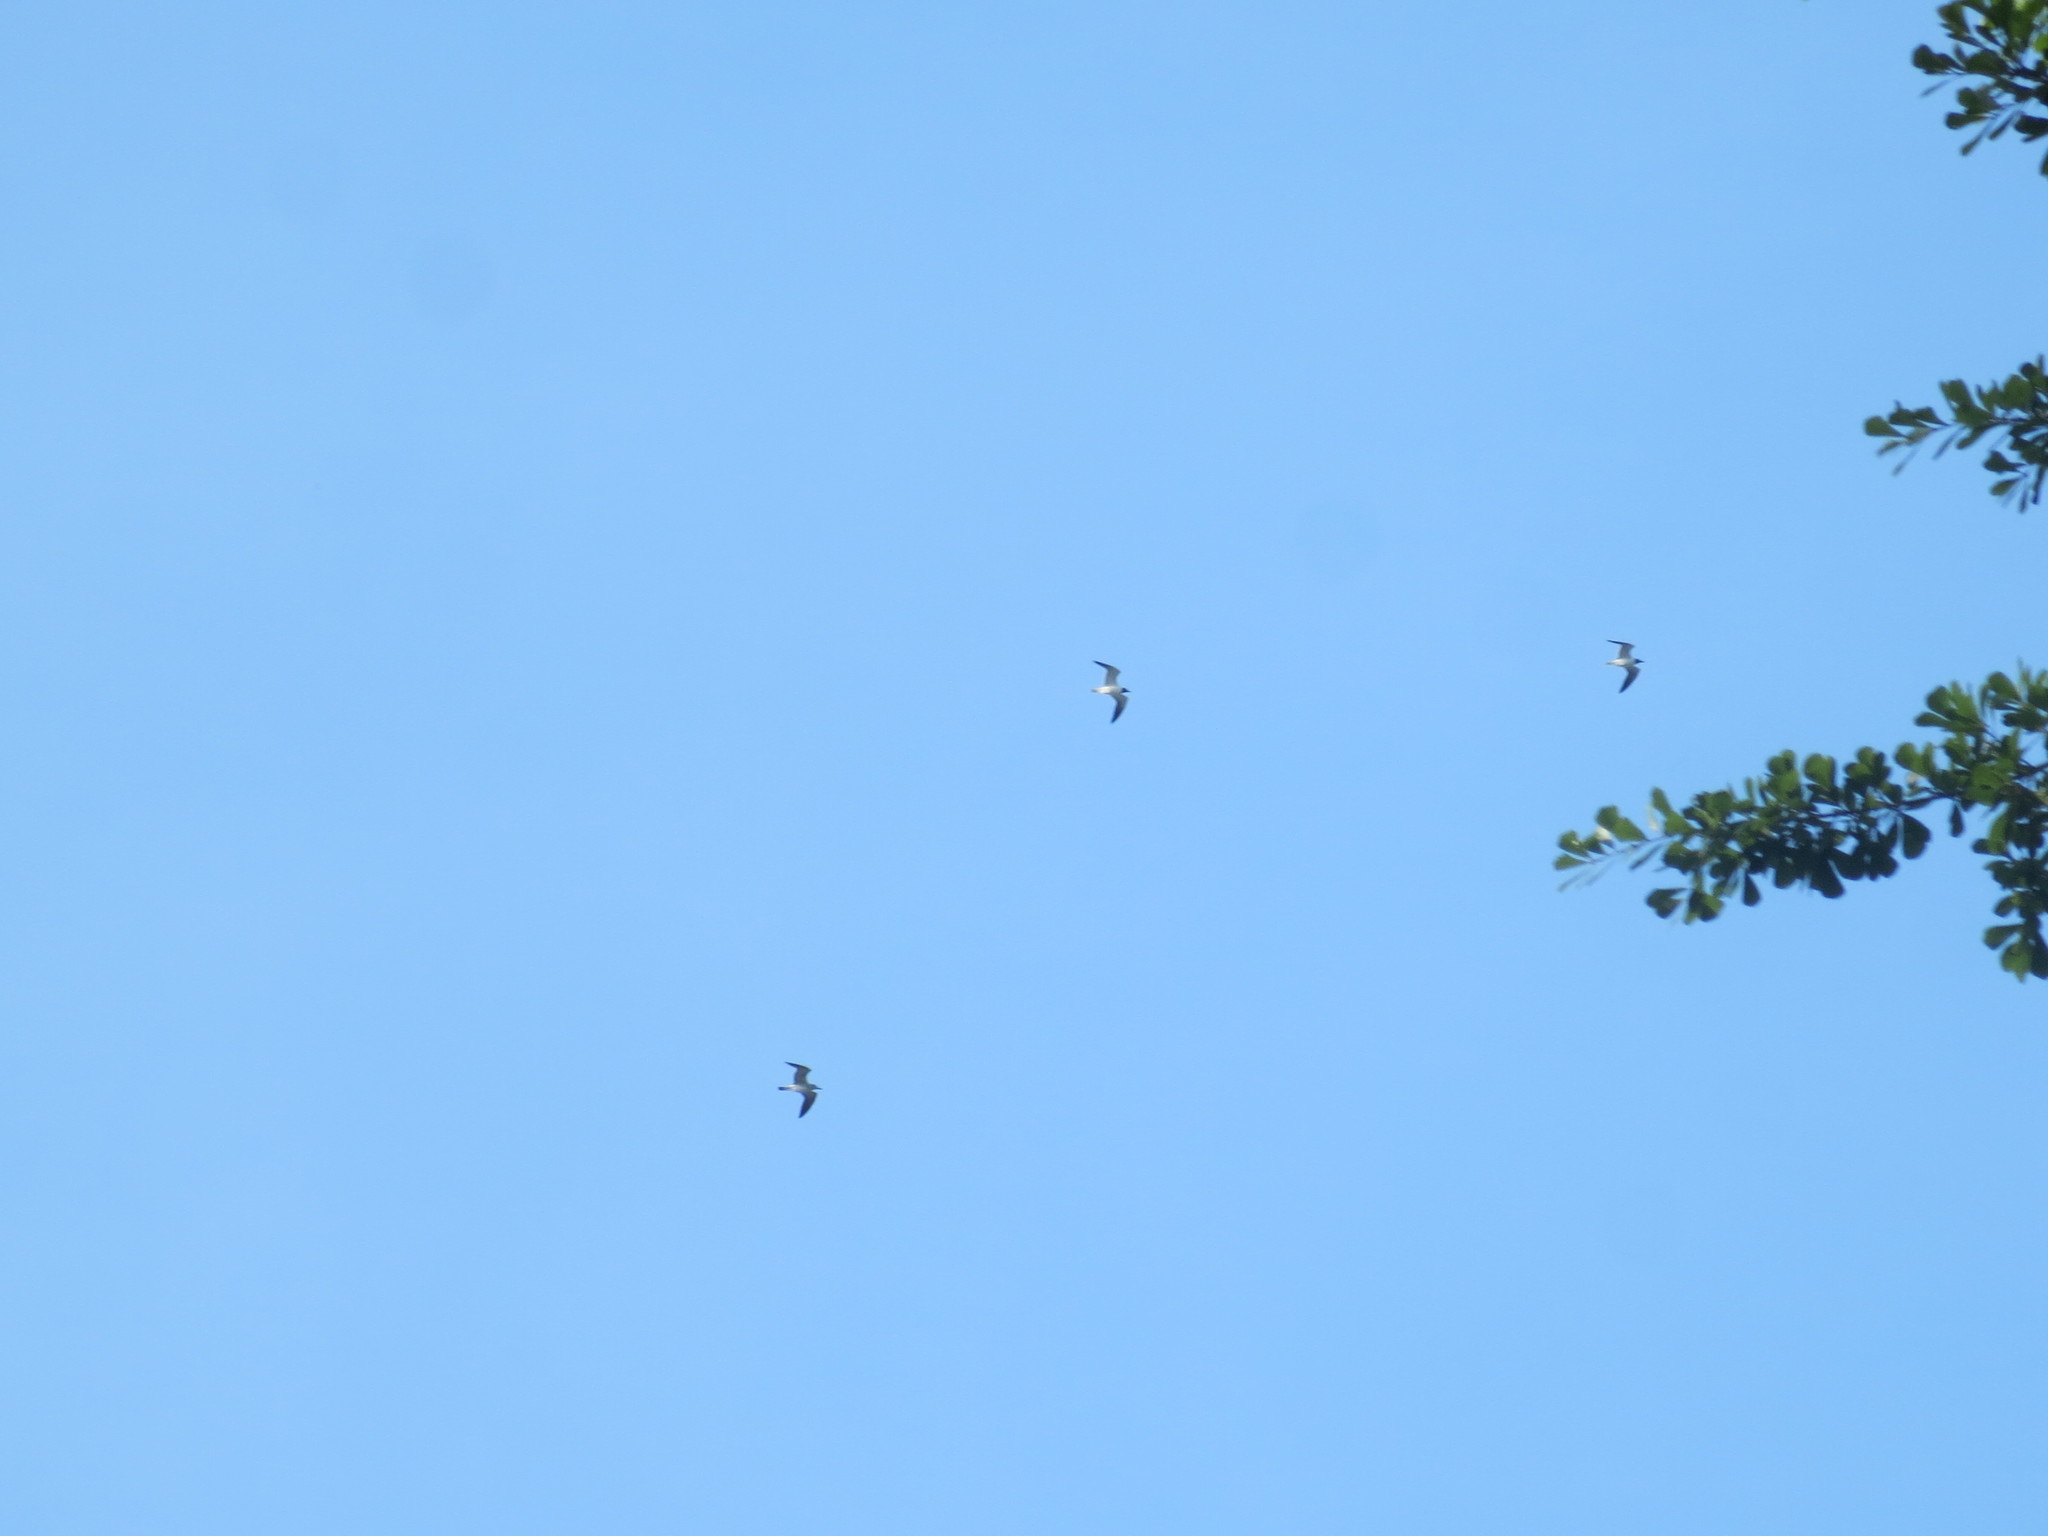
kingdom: Animalia
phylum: Chordata
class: Aves
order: Charadriiformes
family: Laridae
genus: Leucophaeus
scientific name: Leucophaeus atricilla
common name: Laughing gull
